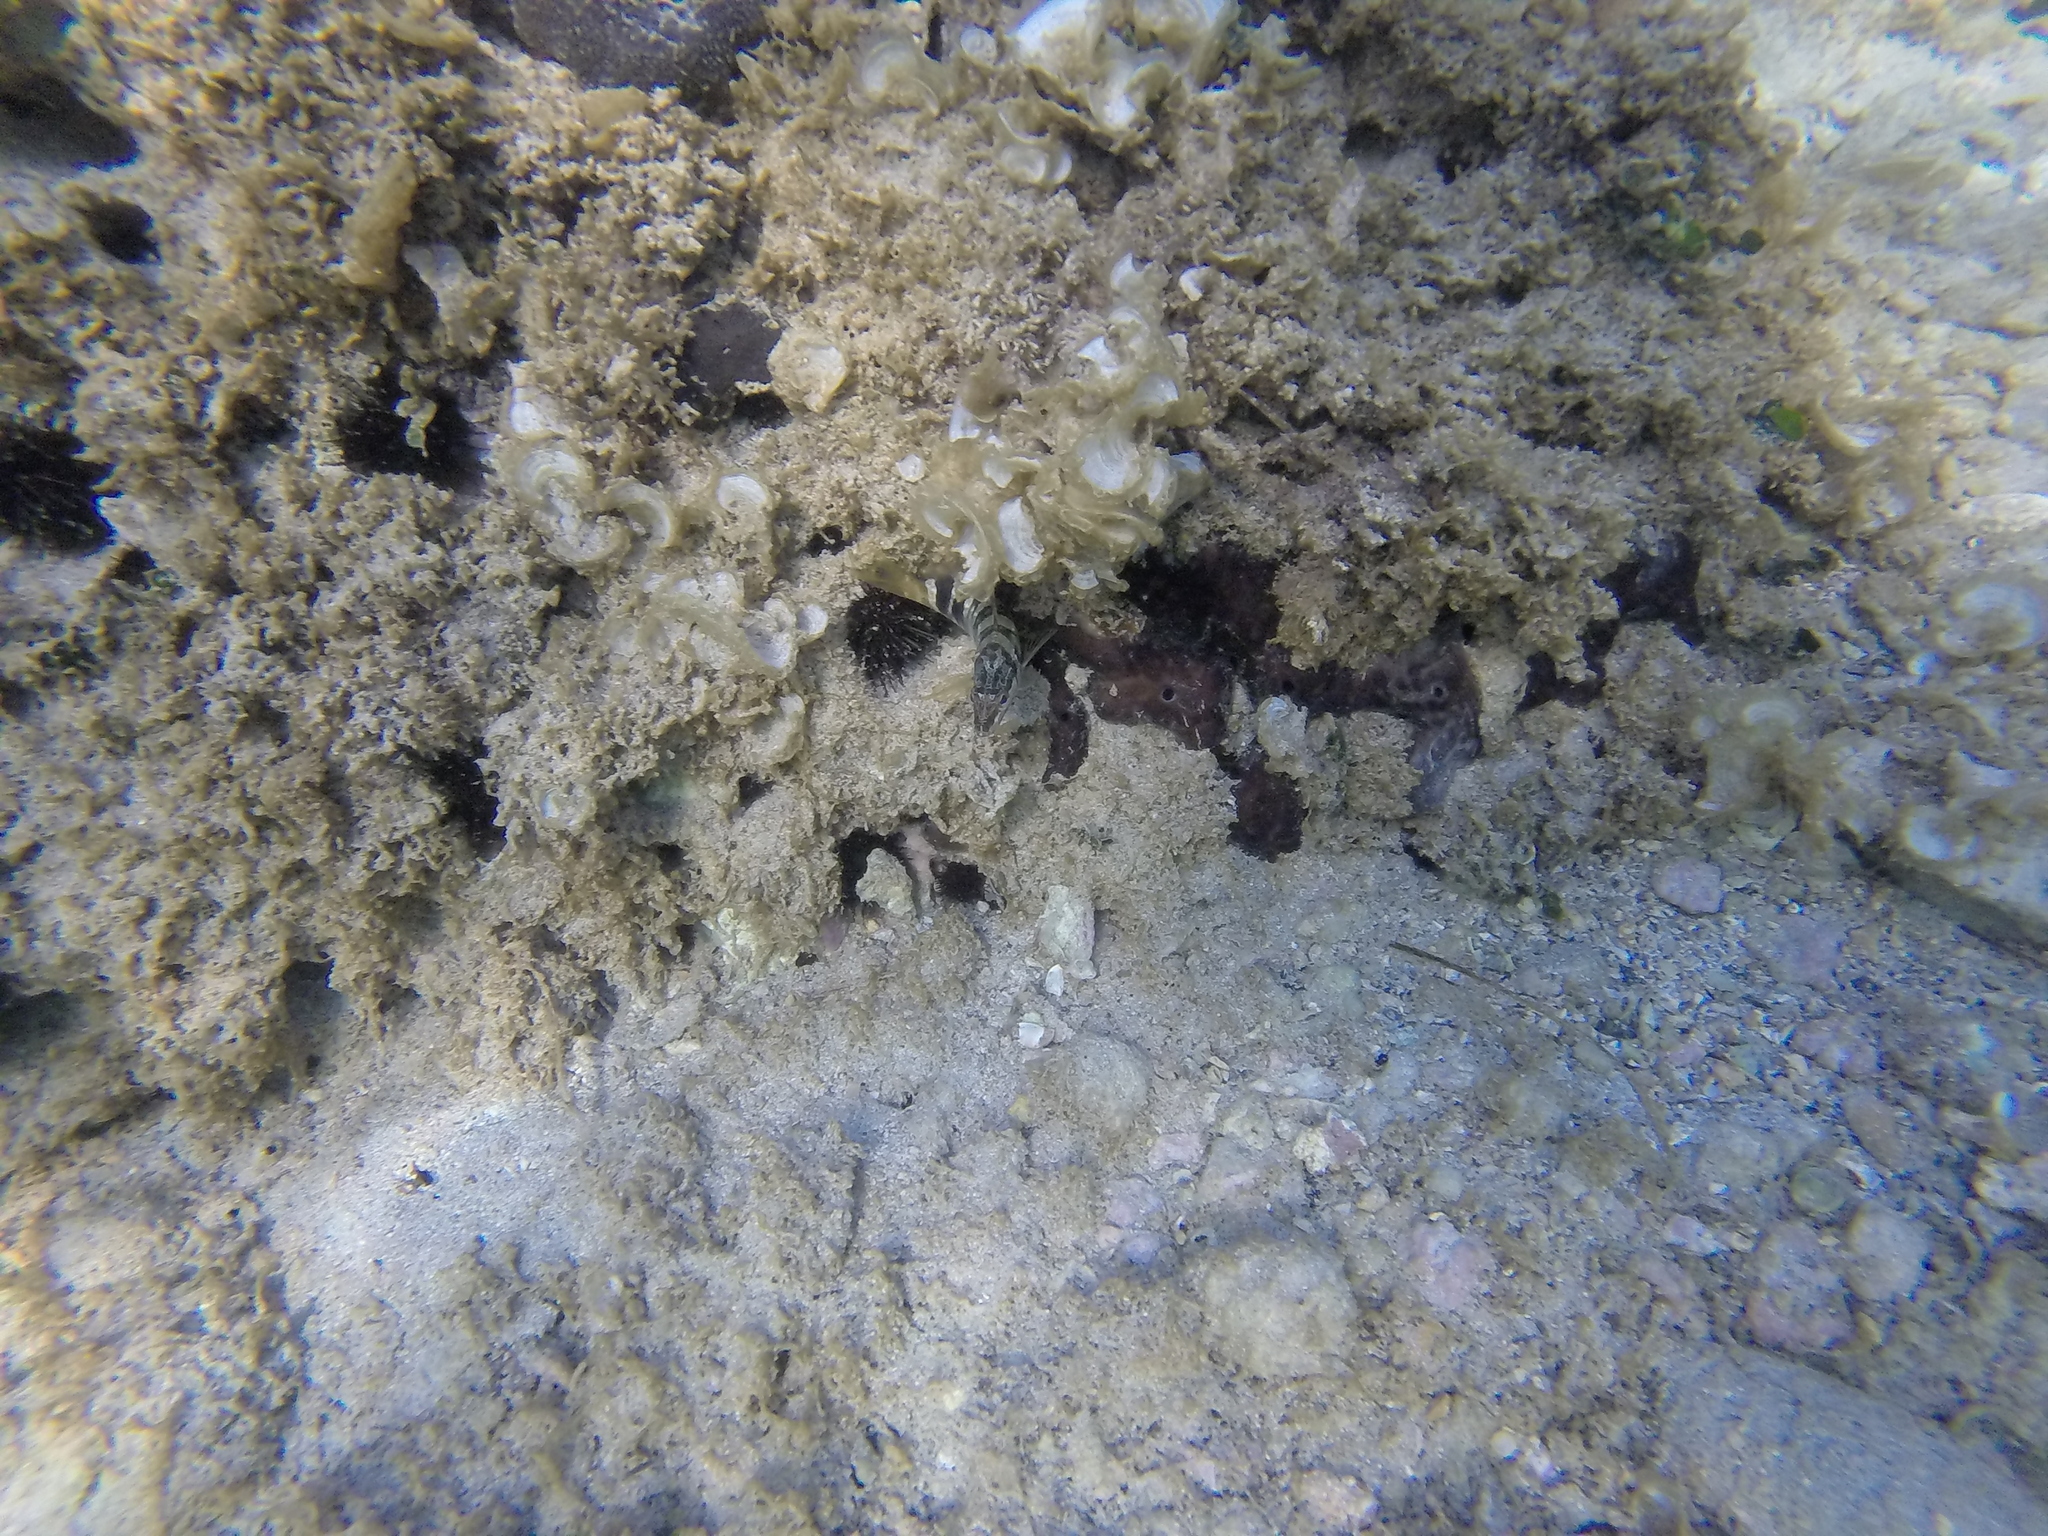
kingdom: Animalia
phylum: Chordata
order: Perciformes
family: Serranidae
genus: Serranus
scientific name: Serranus scriba
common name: Painted comber
